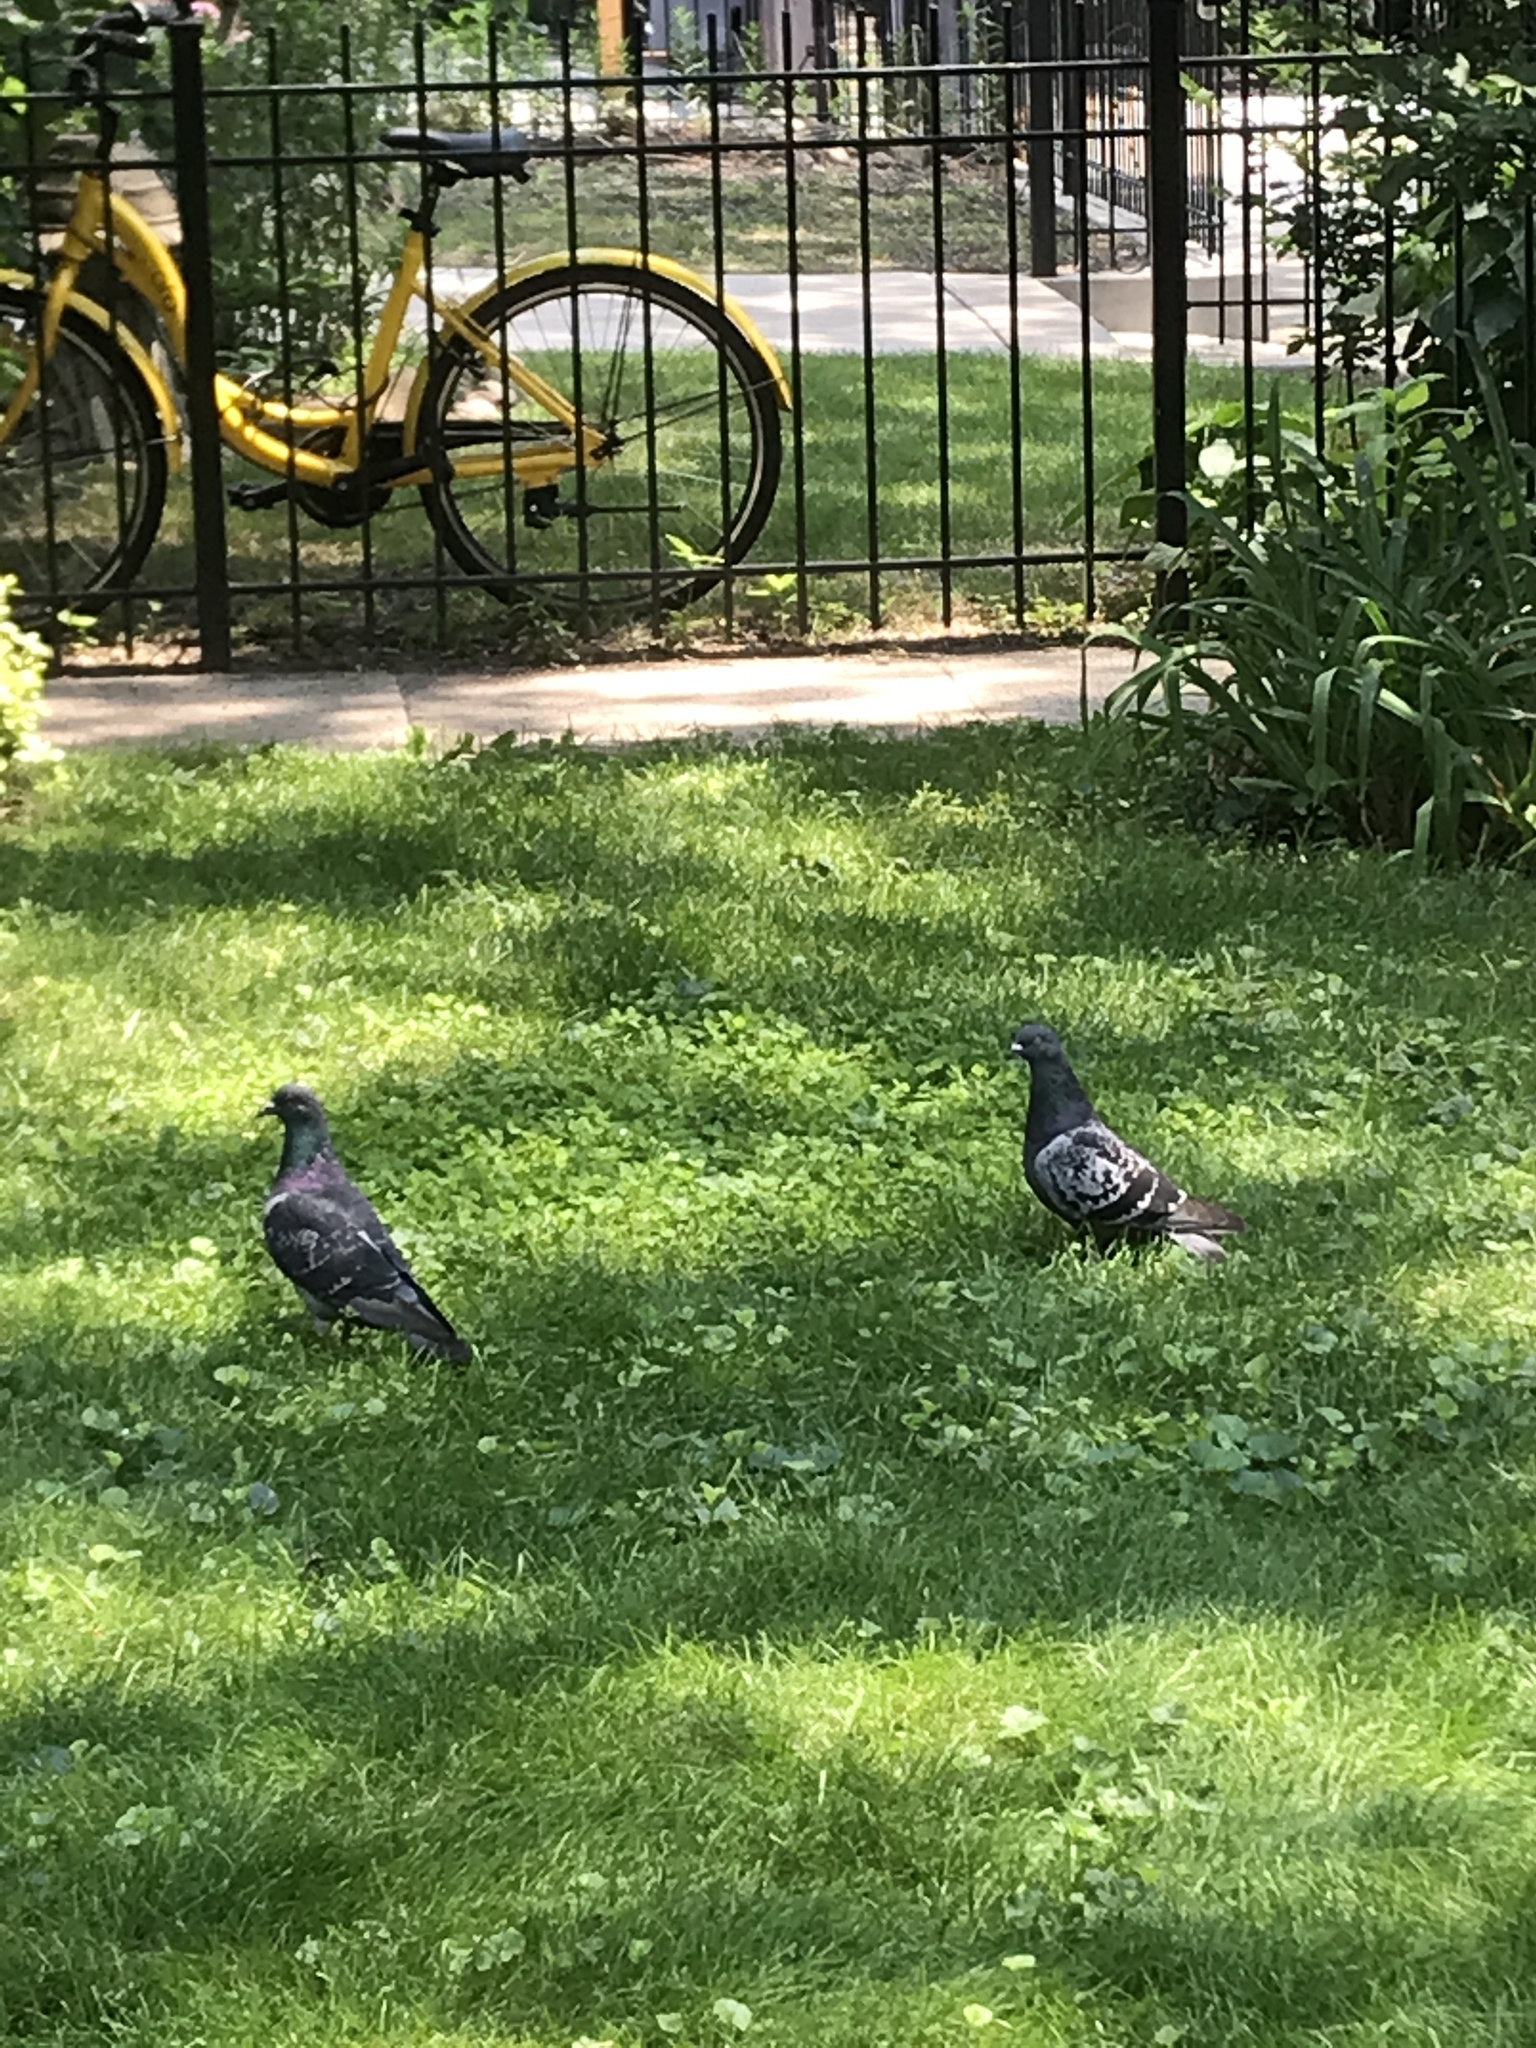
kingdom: Animalia
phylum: Chordata
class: Aves
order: Columbiformes
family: Columbidae
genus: Columba
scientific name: Columba livia
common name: Rock pigeon
